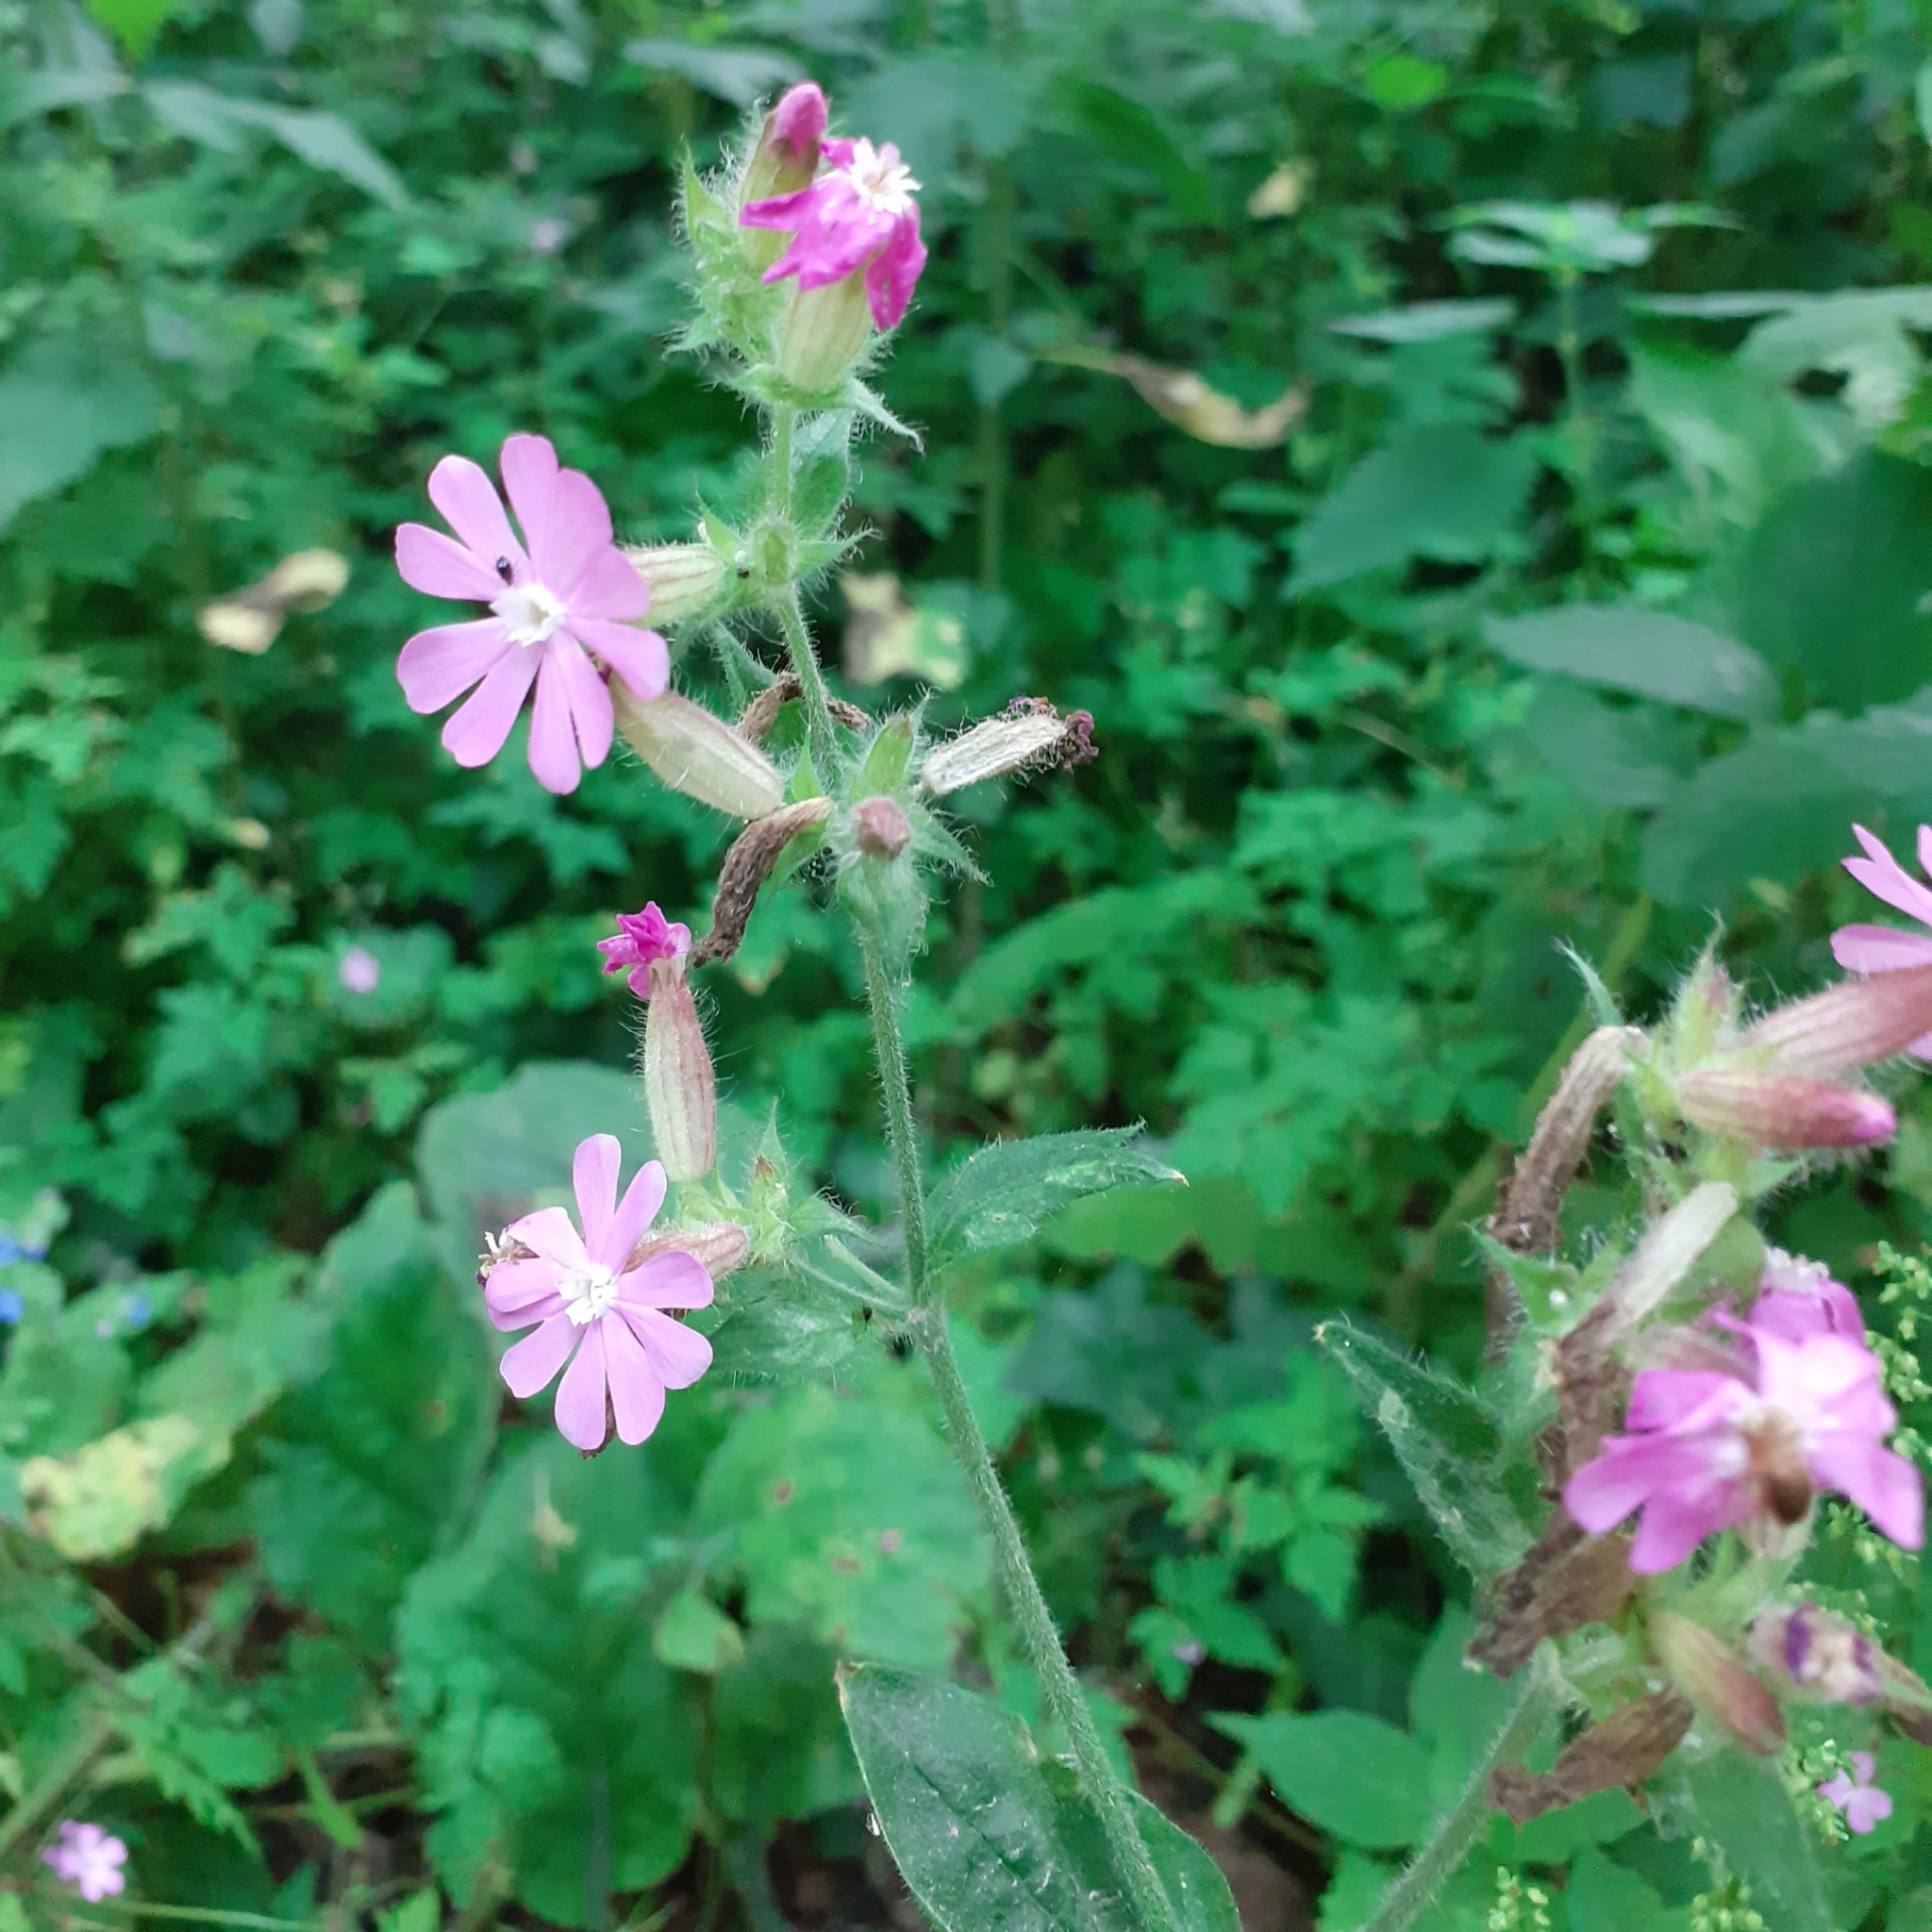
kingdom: Plantae
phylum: Tracheophyta
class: Magnoliopsida
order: Caryophyllales
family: Caryophyllaceae
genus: Silene
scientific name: Silene dioica
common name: Red campion
